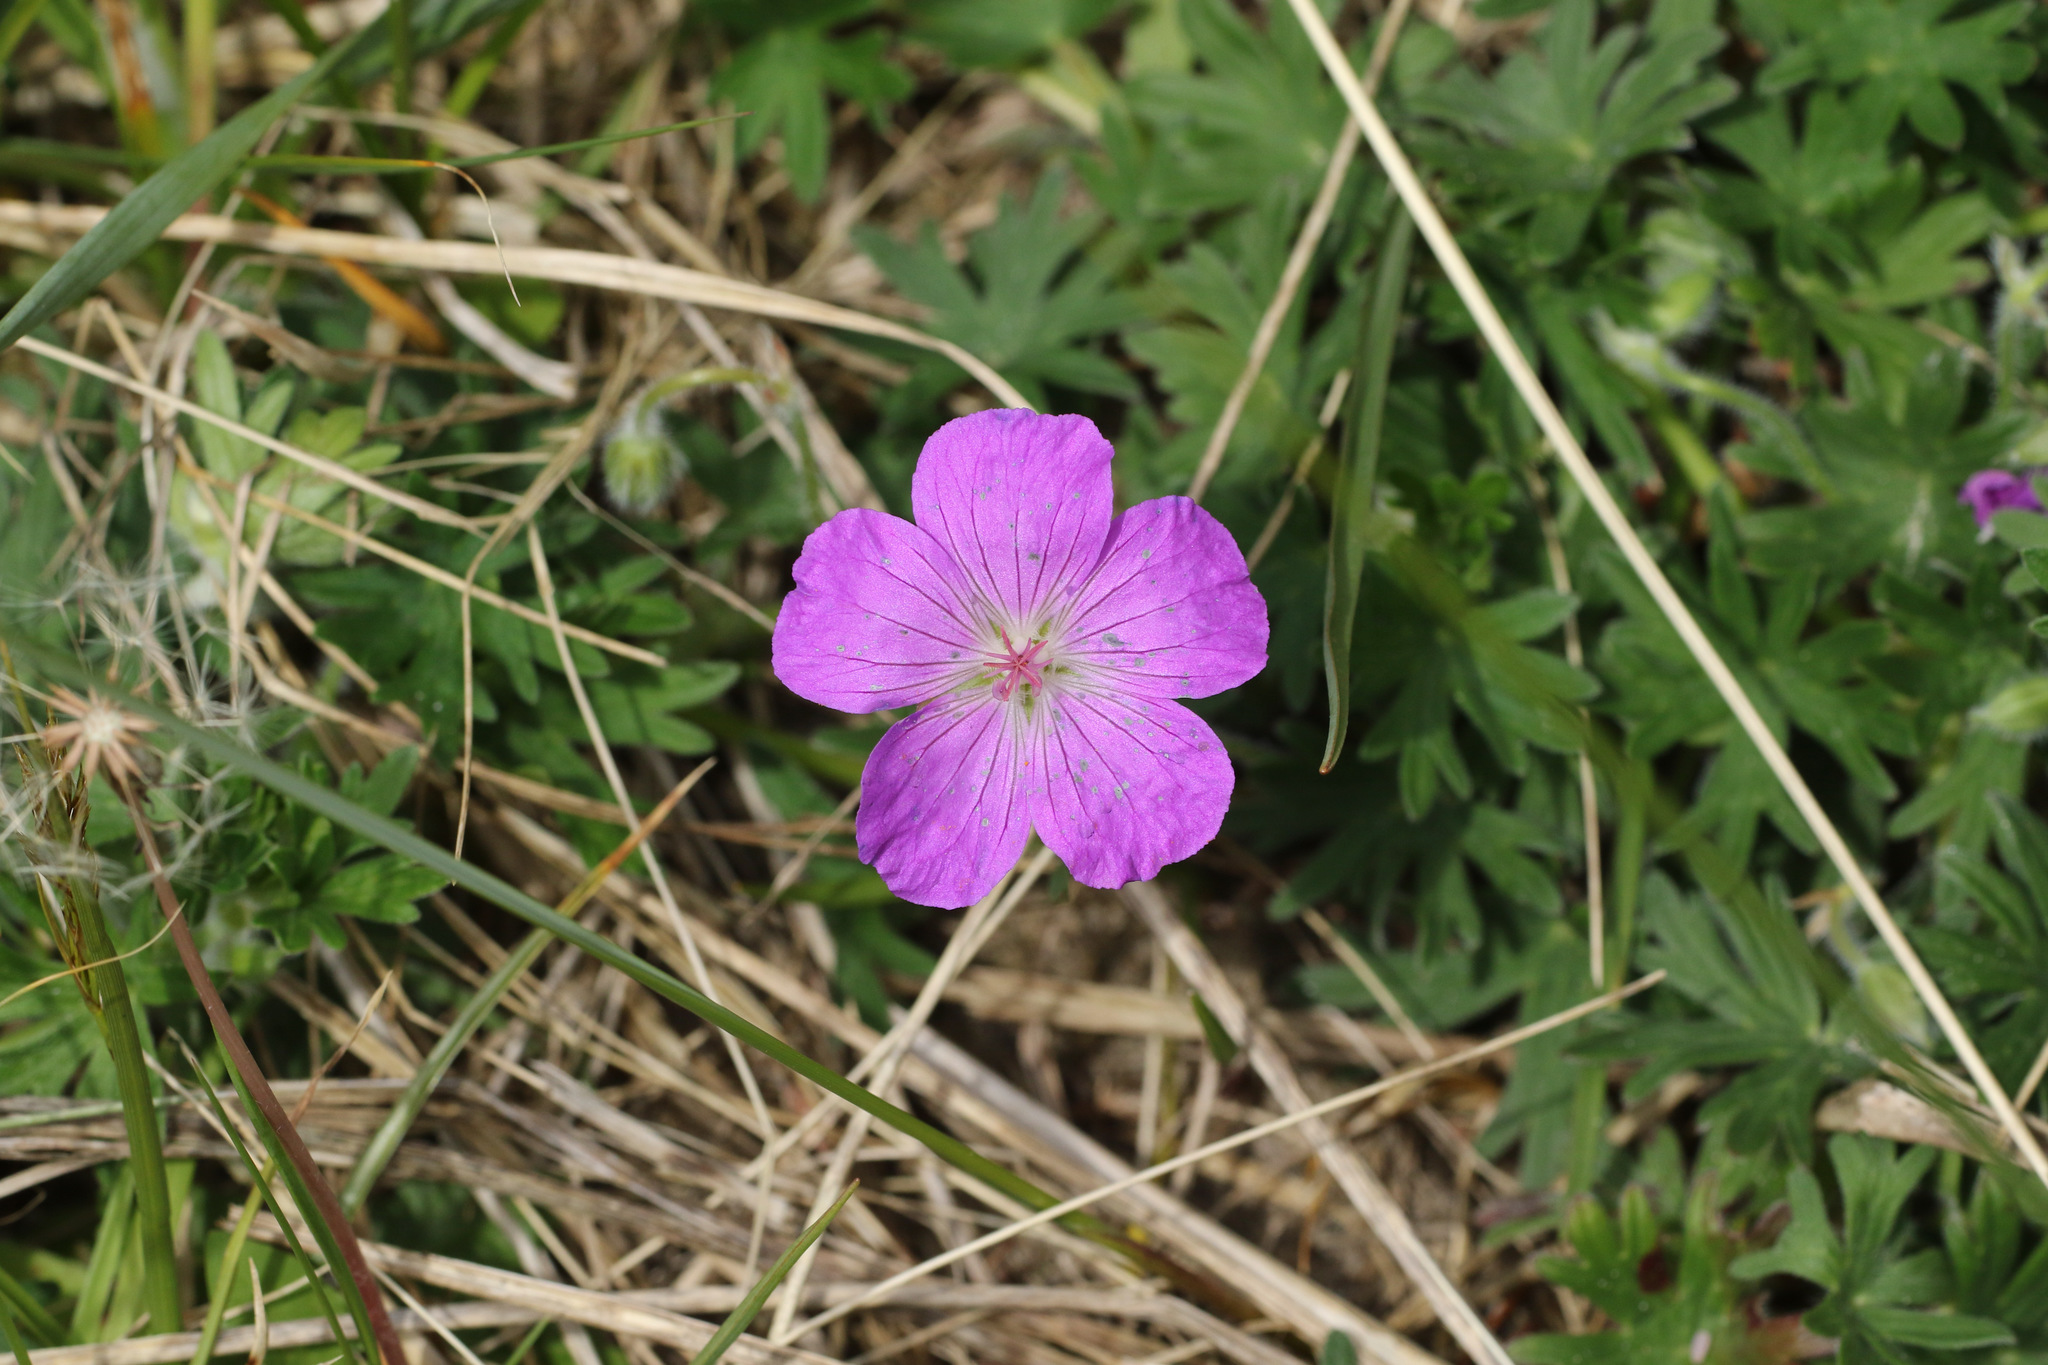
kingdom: Plantae
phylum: Tracheophyta
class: Magnoliopsida
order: Geraniales
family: Geraniaceae
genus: Geranium
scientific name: Geranium sanguineum
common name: Bloody crane's-bill
